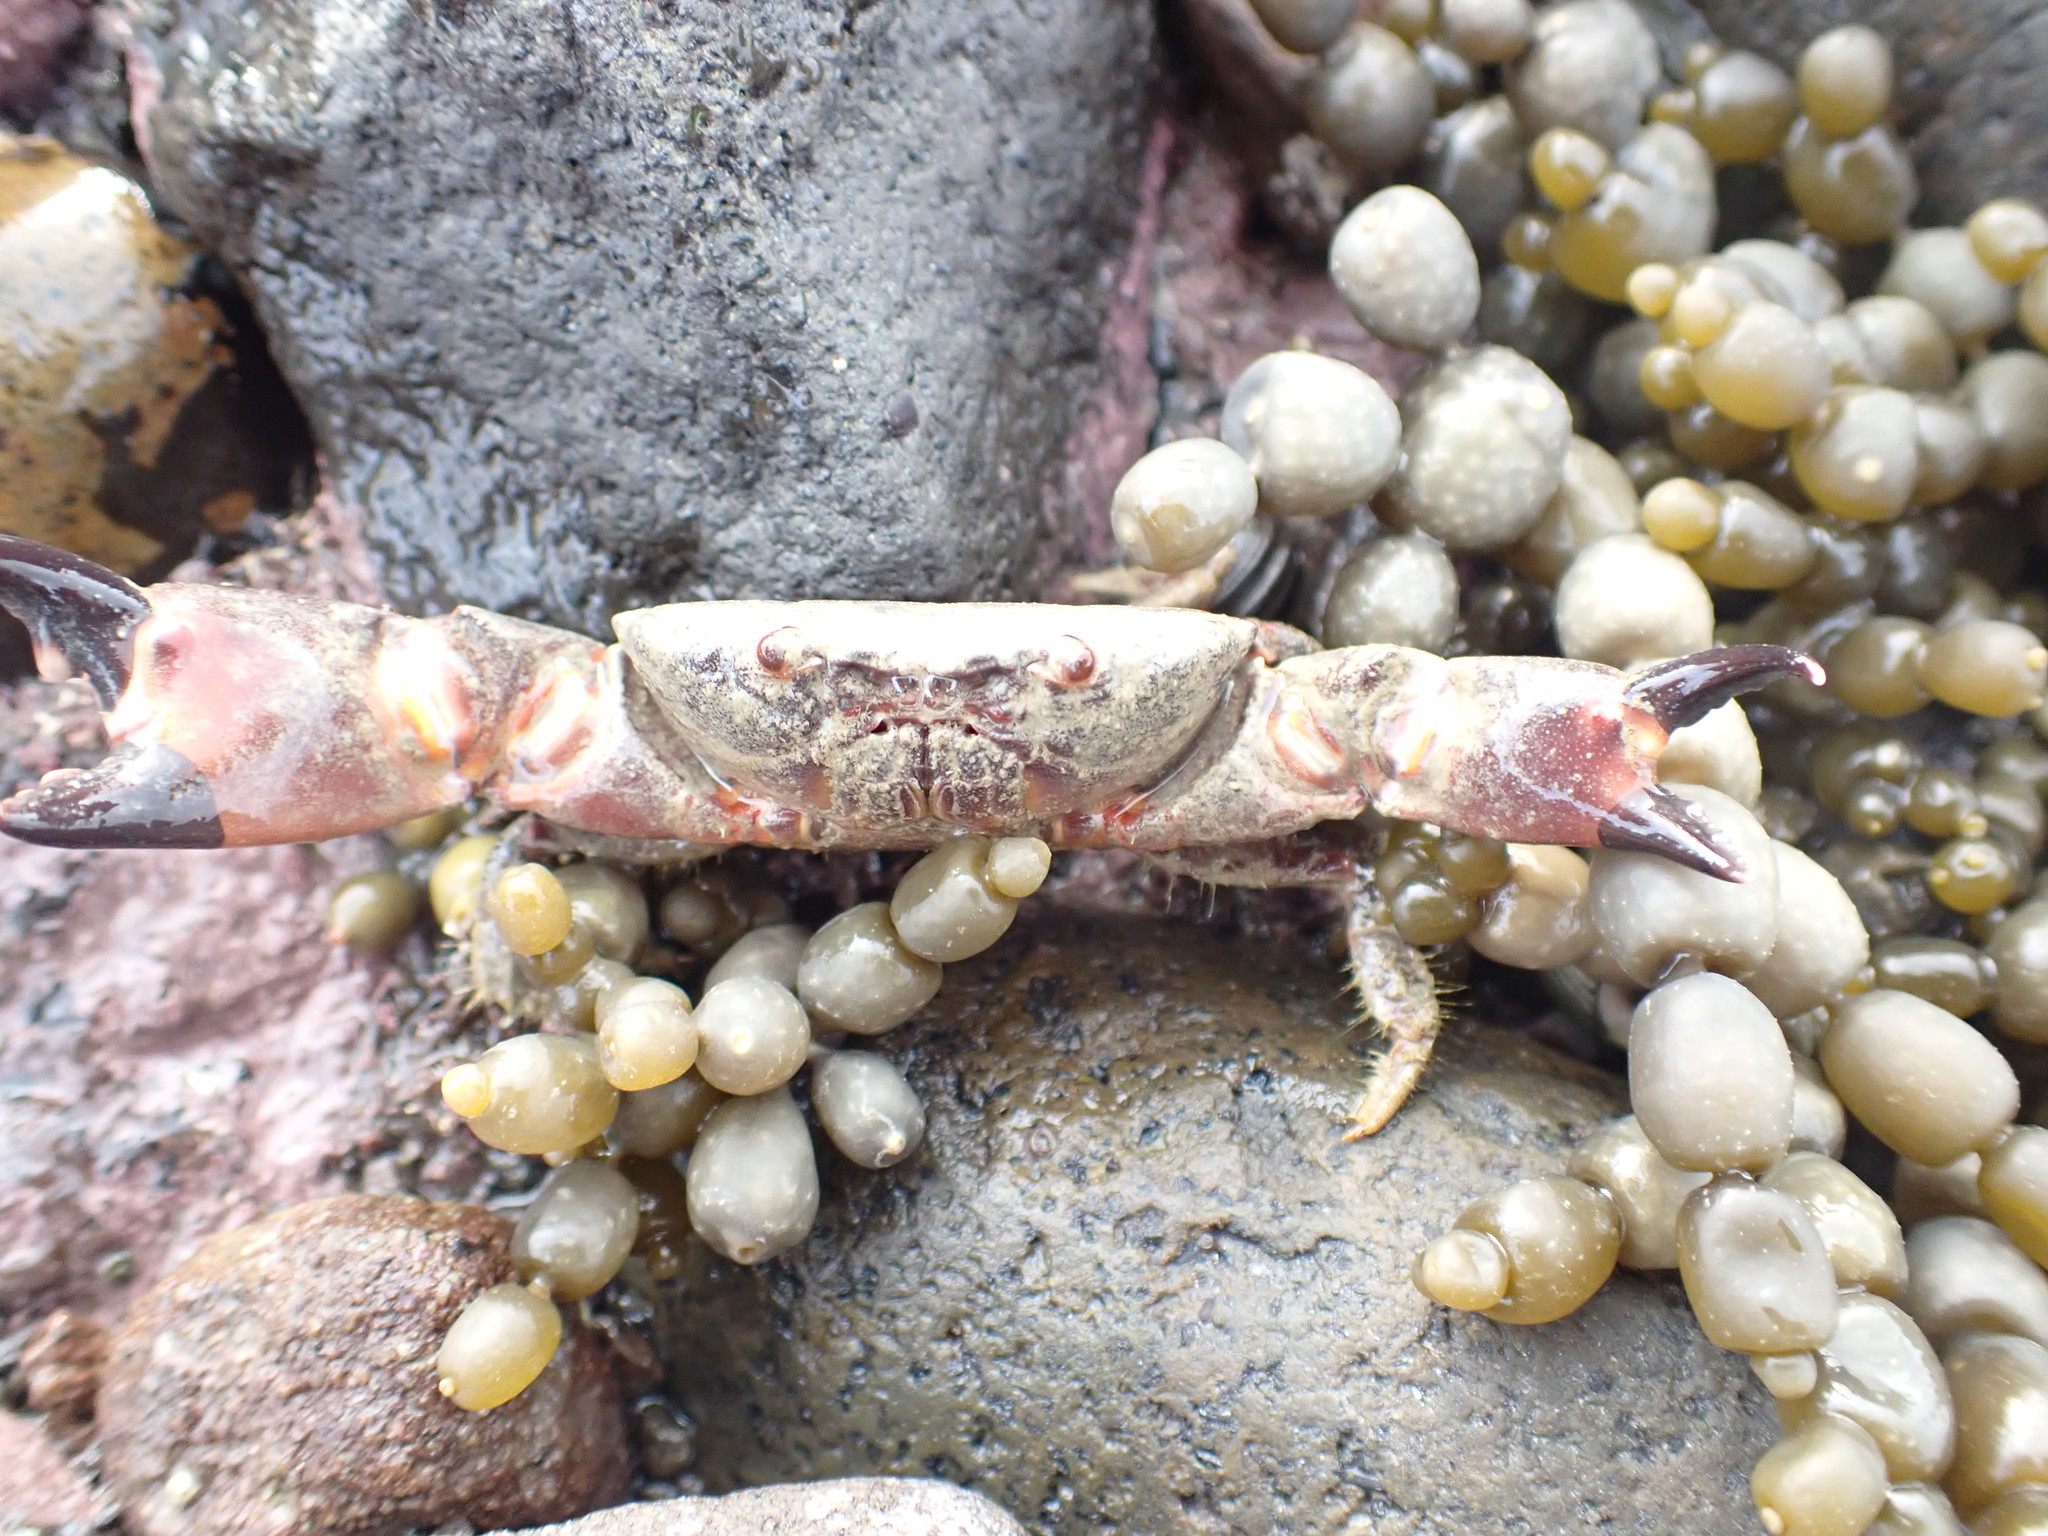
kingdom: Animalia
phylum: Arthropoda
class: Malacostraca
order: Decapoda
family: Oziidae
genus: Ozius
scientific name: Ozius deplanatus
